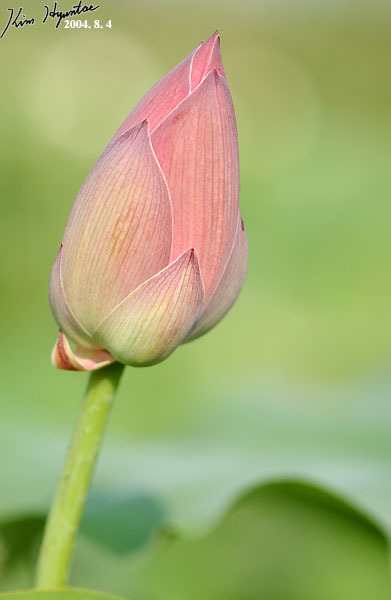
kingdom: Plantae
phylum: Tracheophyta
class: Magnoliopsida
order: Proteales
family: Nelumbonaceae
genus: Nelumbo
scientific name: Nelumbo nucifera
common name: Sacred lotus
